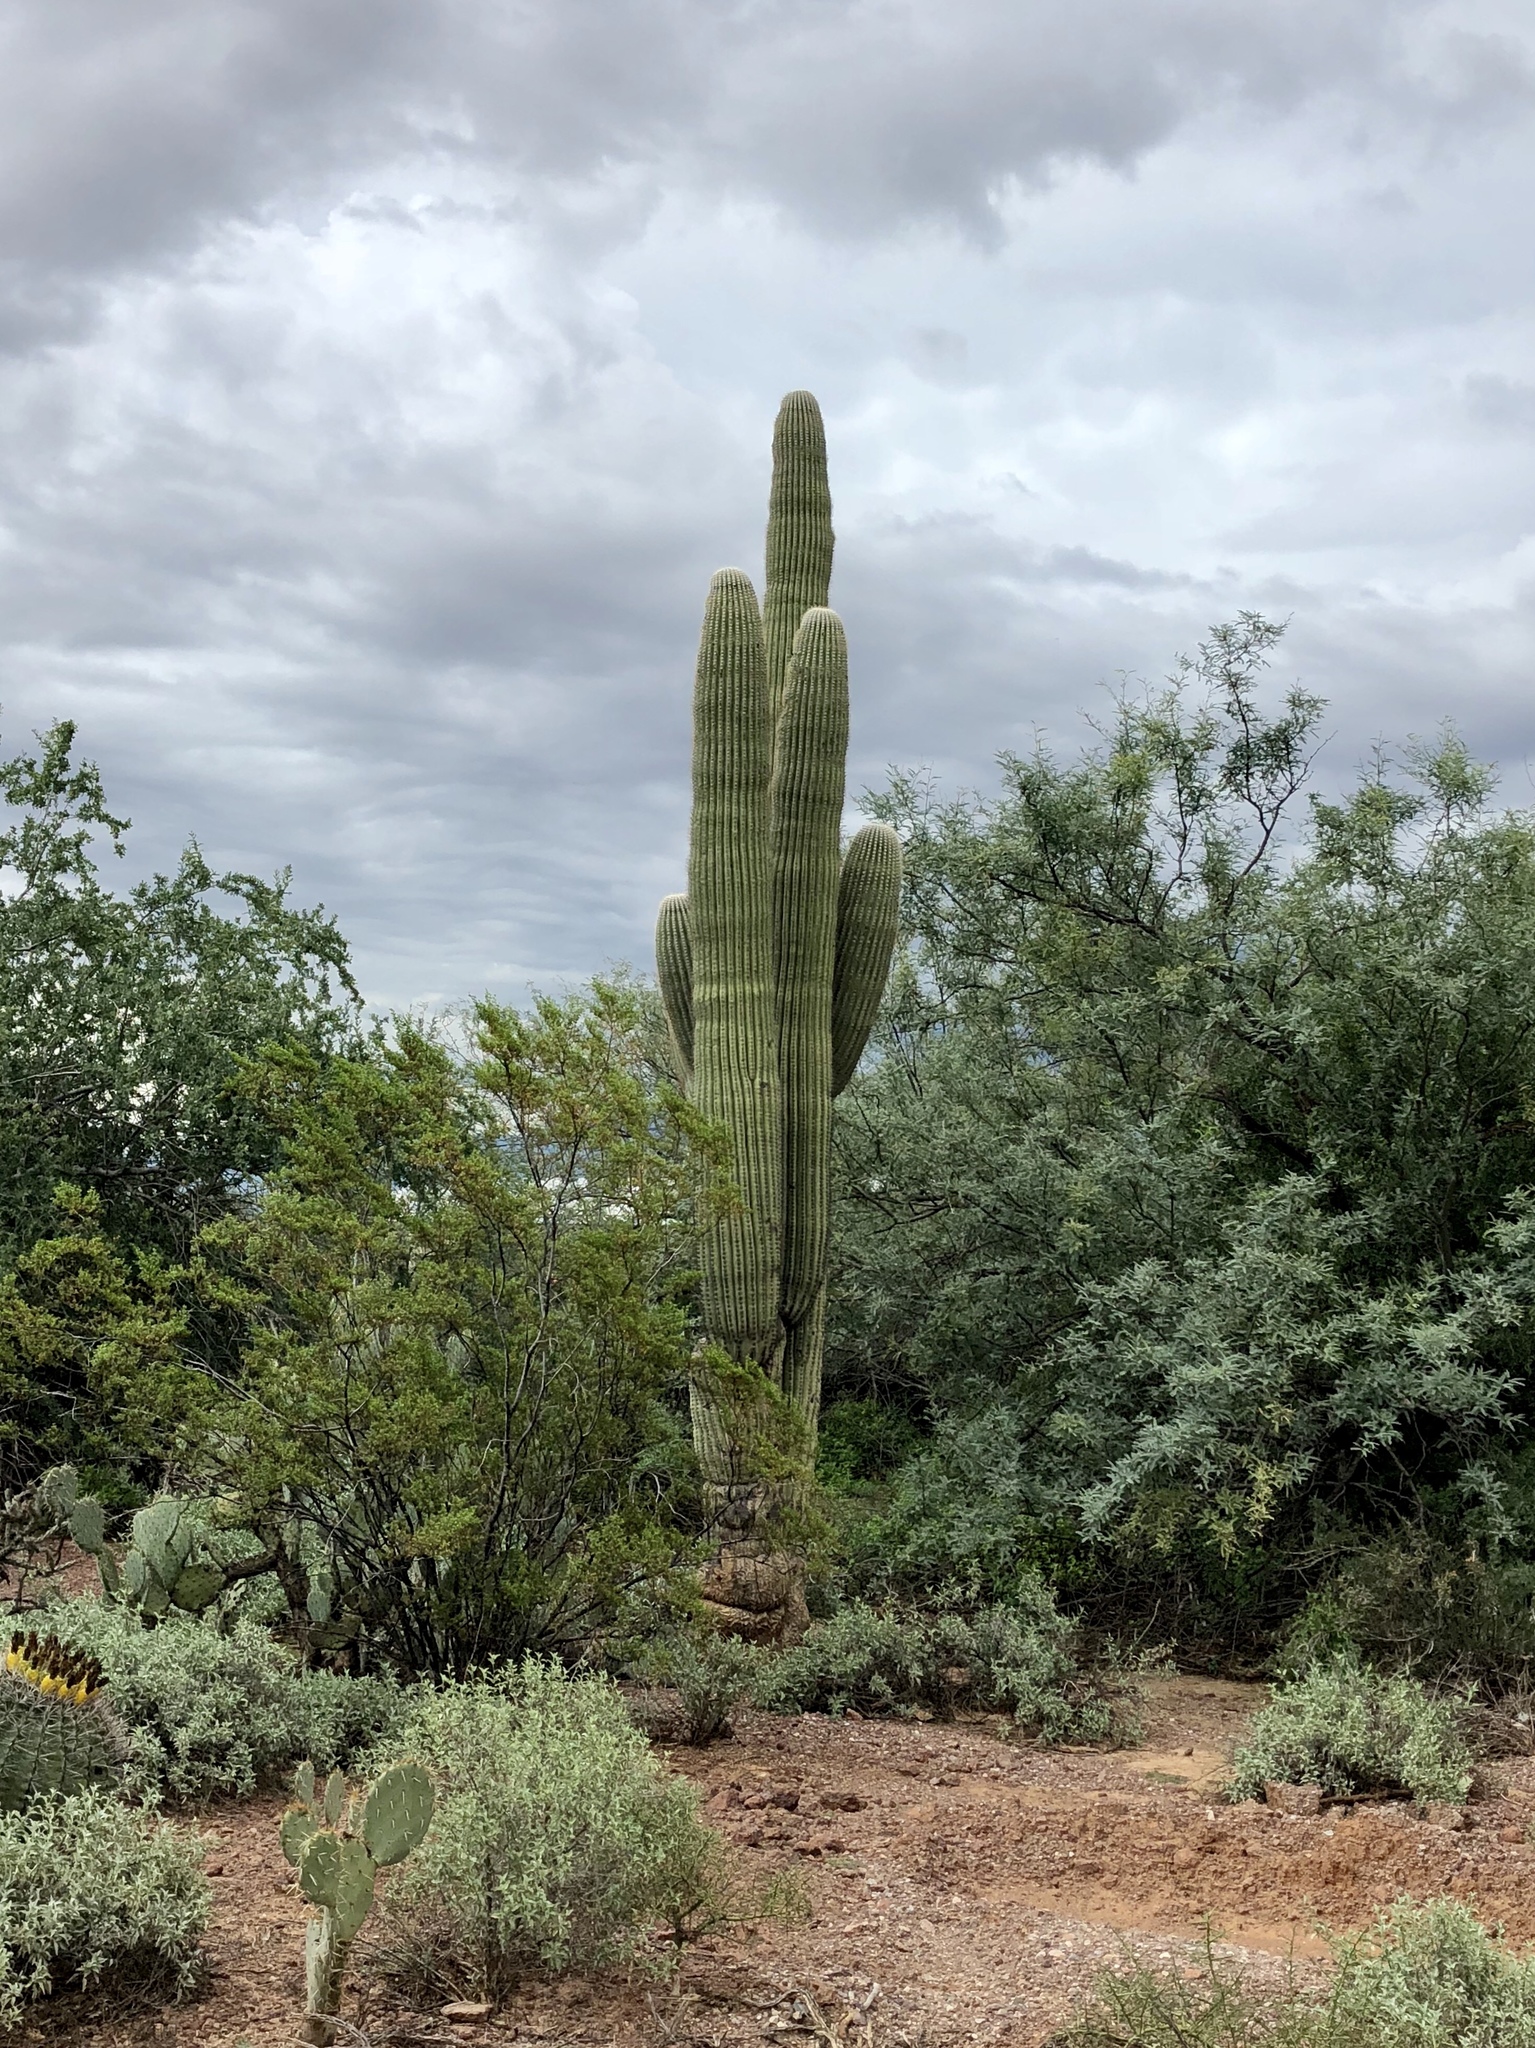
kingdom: Plantae
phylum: Tracheophyta
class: Magnoliopsida
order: Caryophyllales
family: Cactaceae
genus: Carnegiea
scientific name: Carnegiea gigantea
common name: Saguaro
